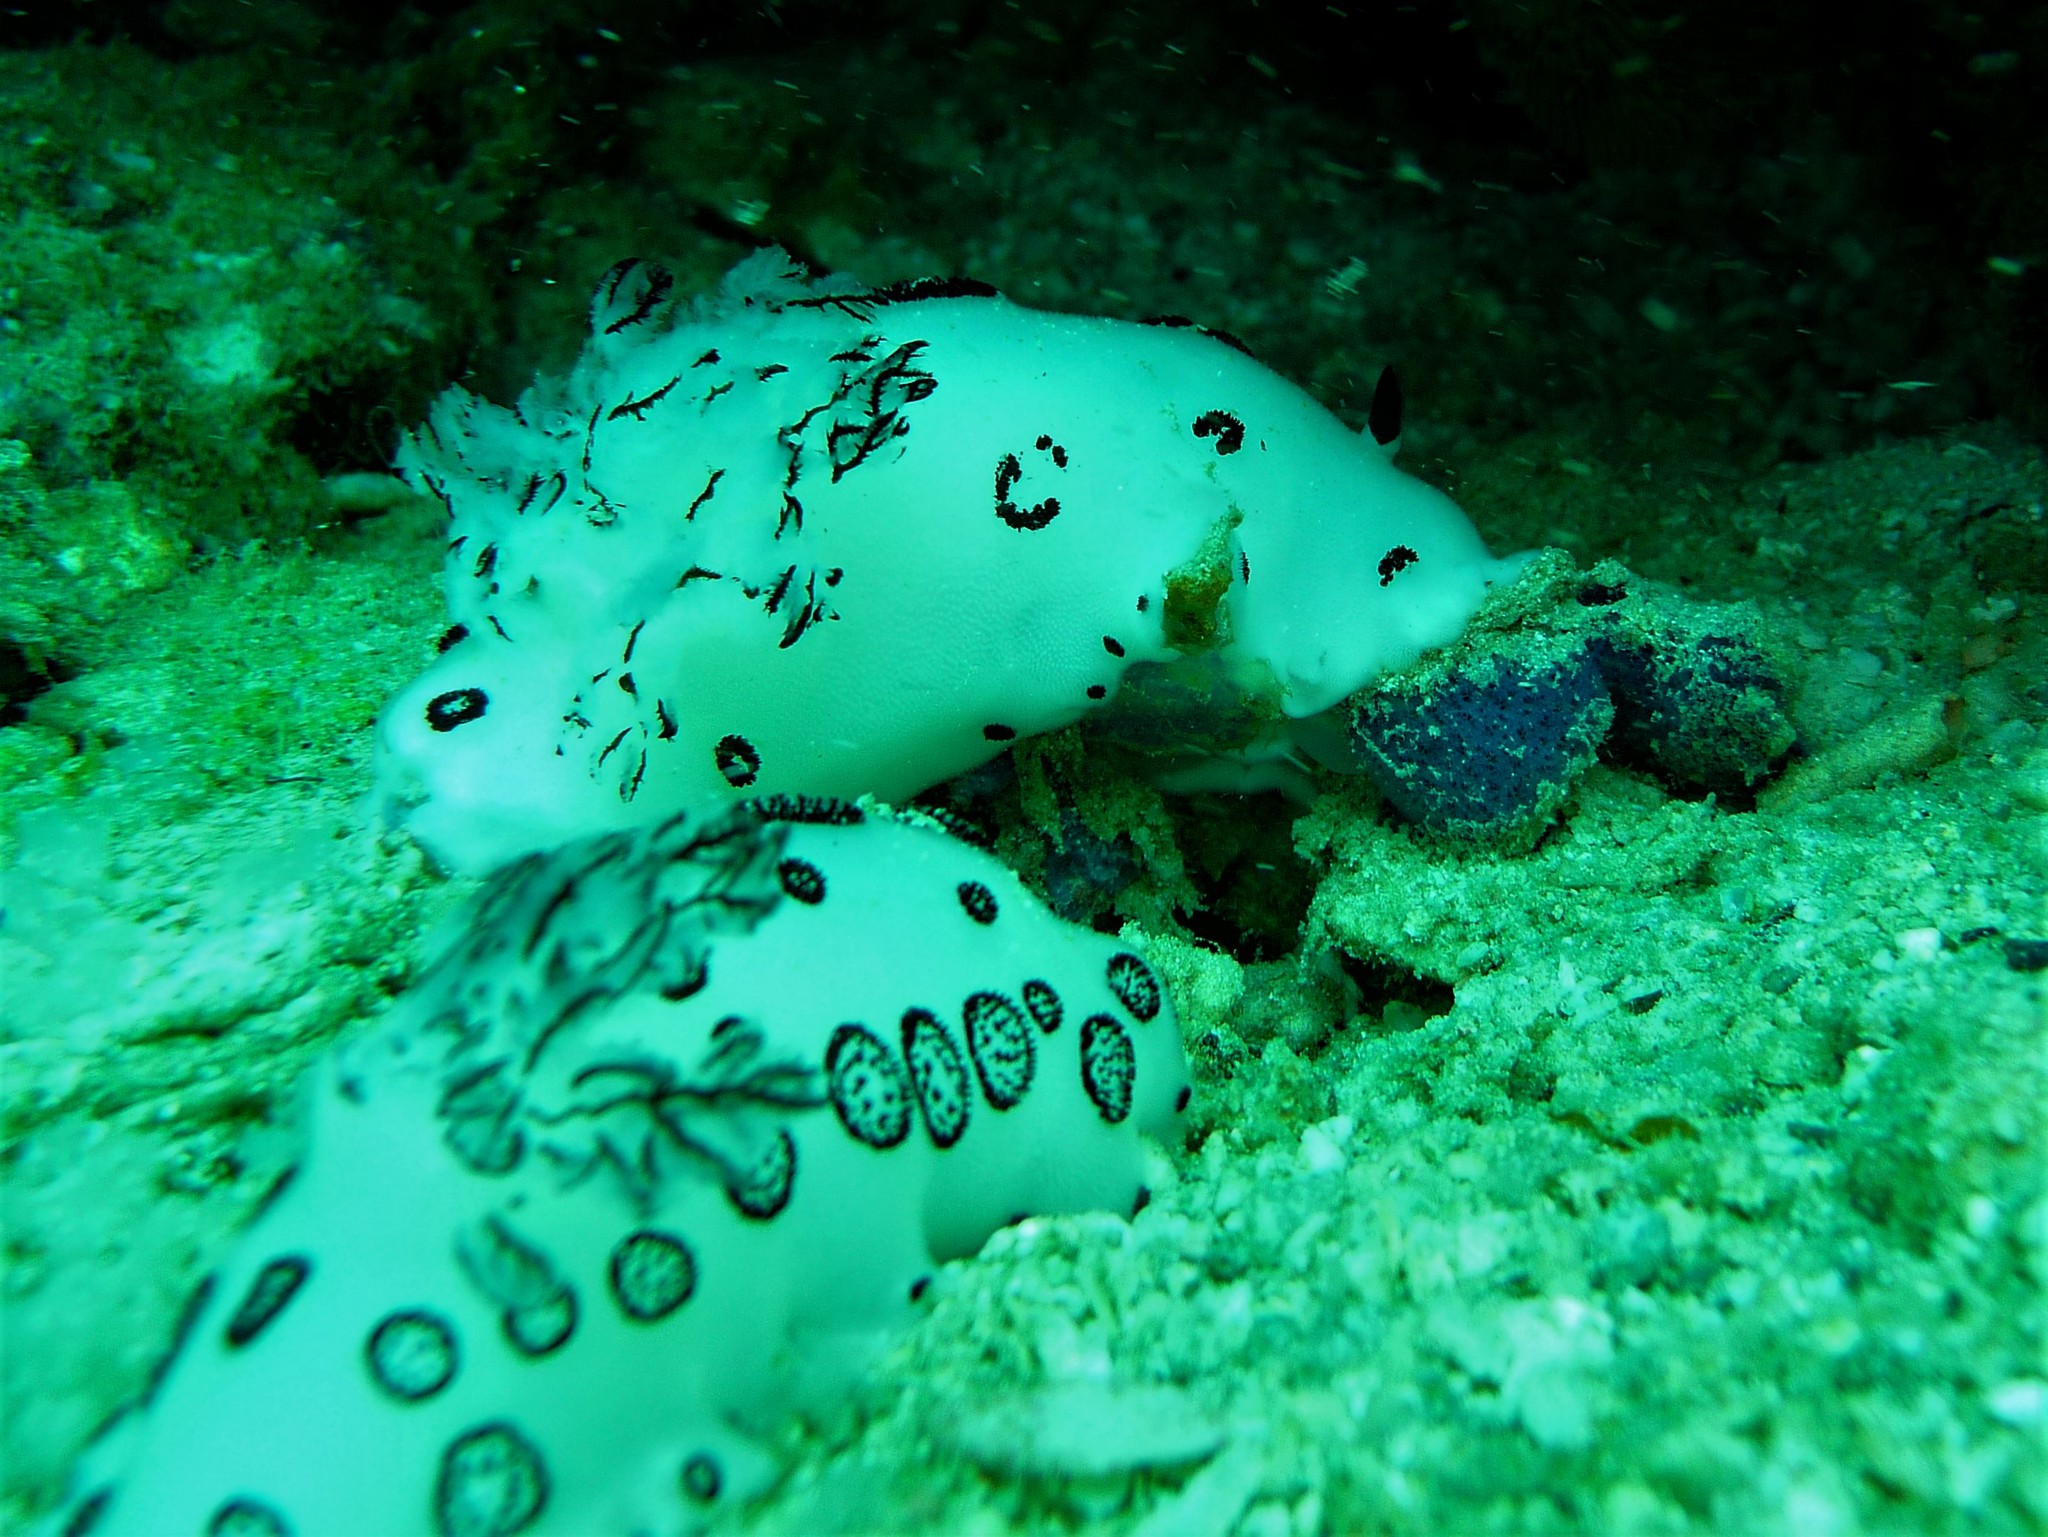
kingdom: Animalia
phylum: Mollusca
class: Gastropoda
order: Nudibranchia
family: Discodorididae
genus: Jorunna
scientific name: Jorunna funebris
